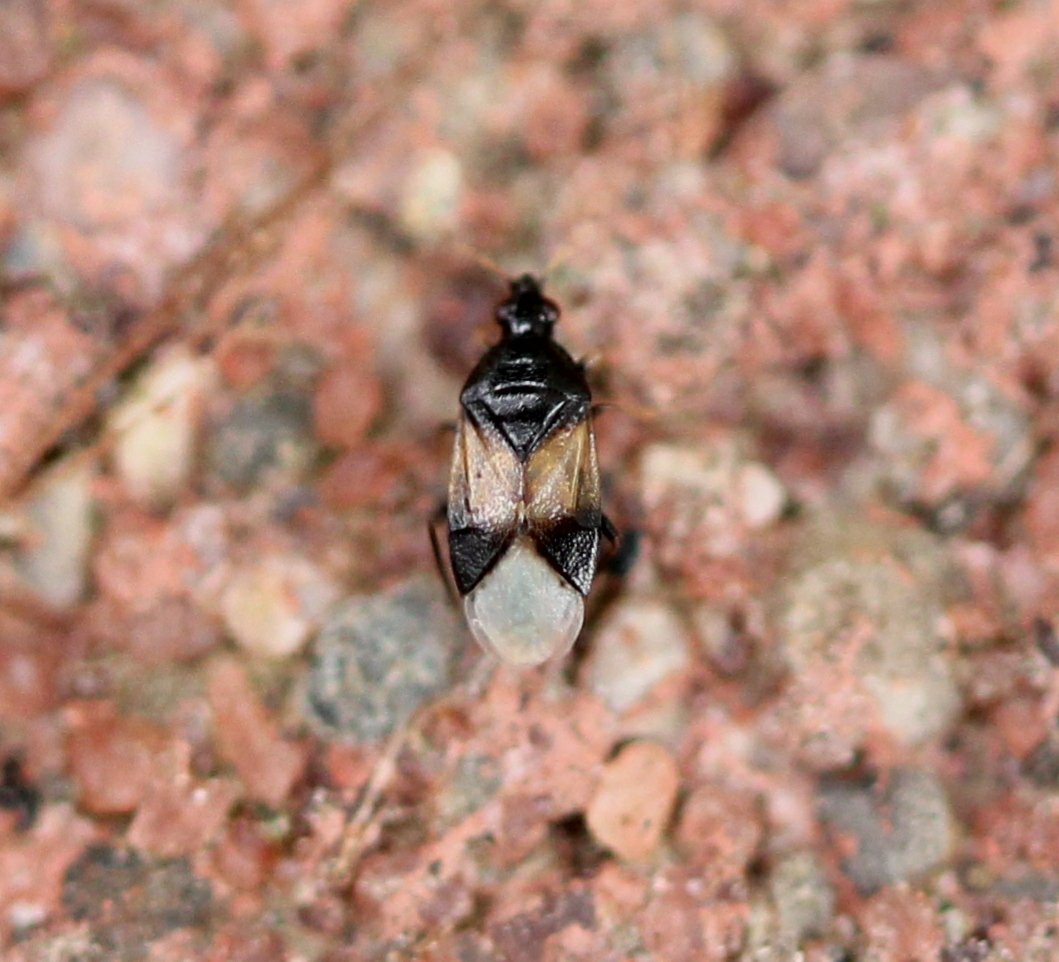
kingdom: Animalia
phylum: Arthropoda
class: Insecta
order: Hemiptera
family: Anthocoridae
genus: Orius
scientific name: Orius insidiosus
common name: Insidious flower bug
